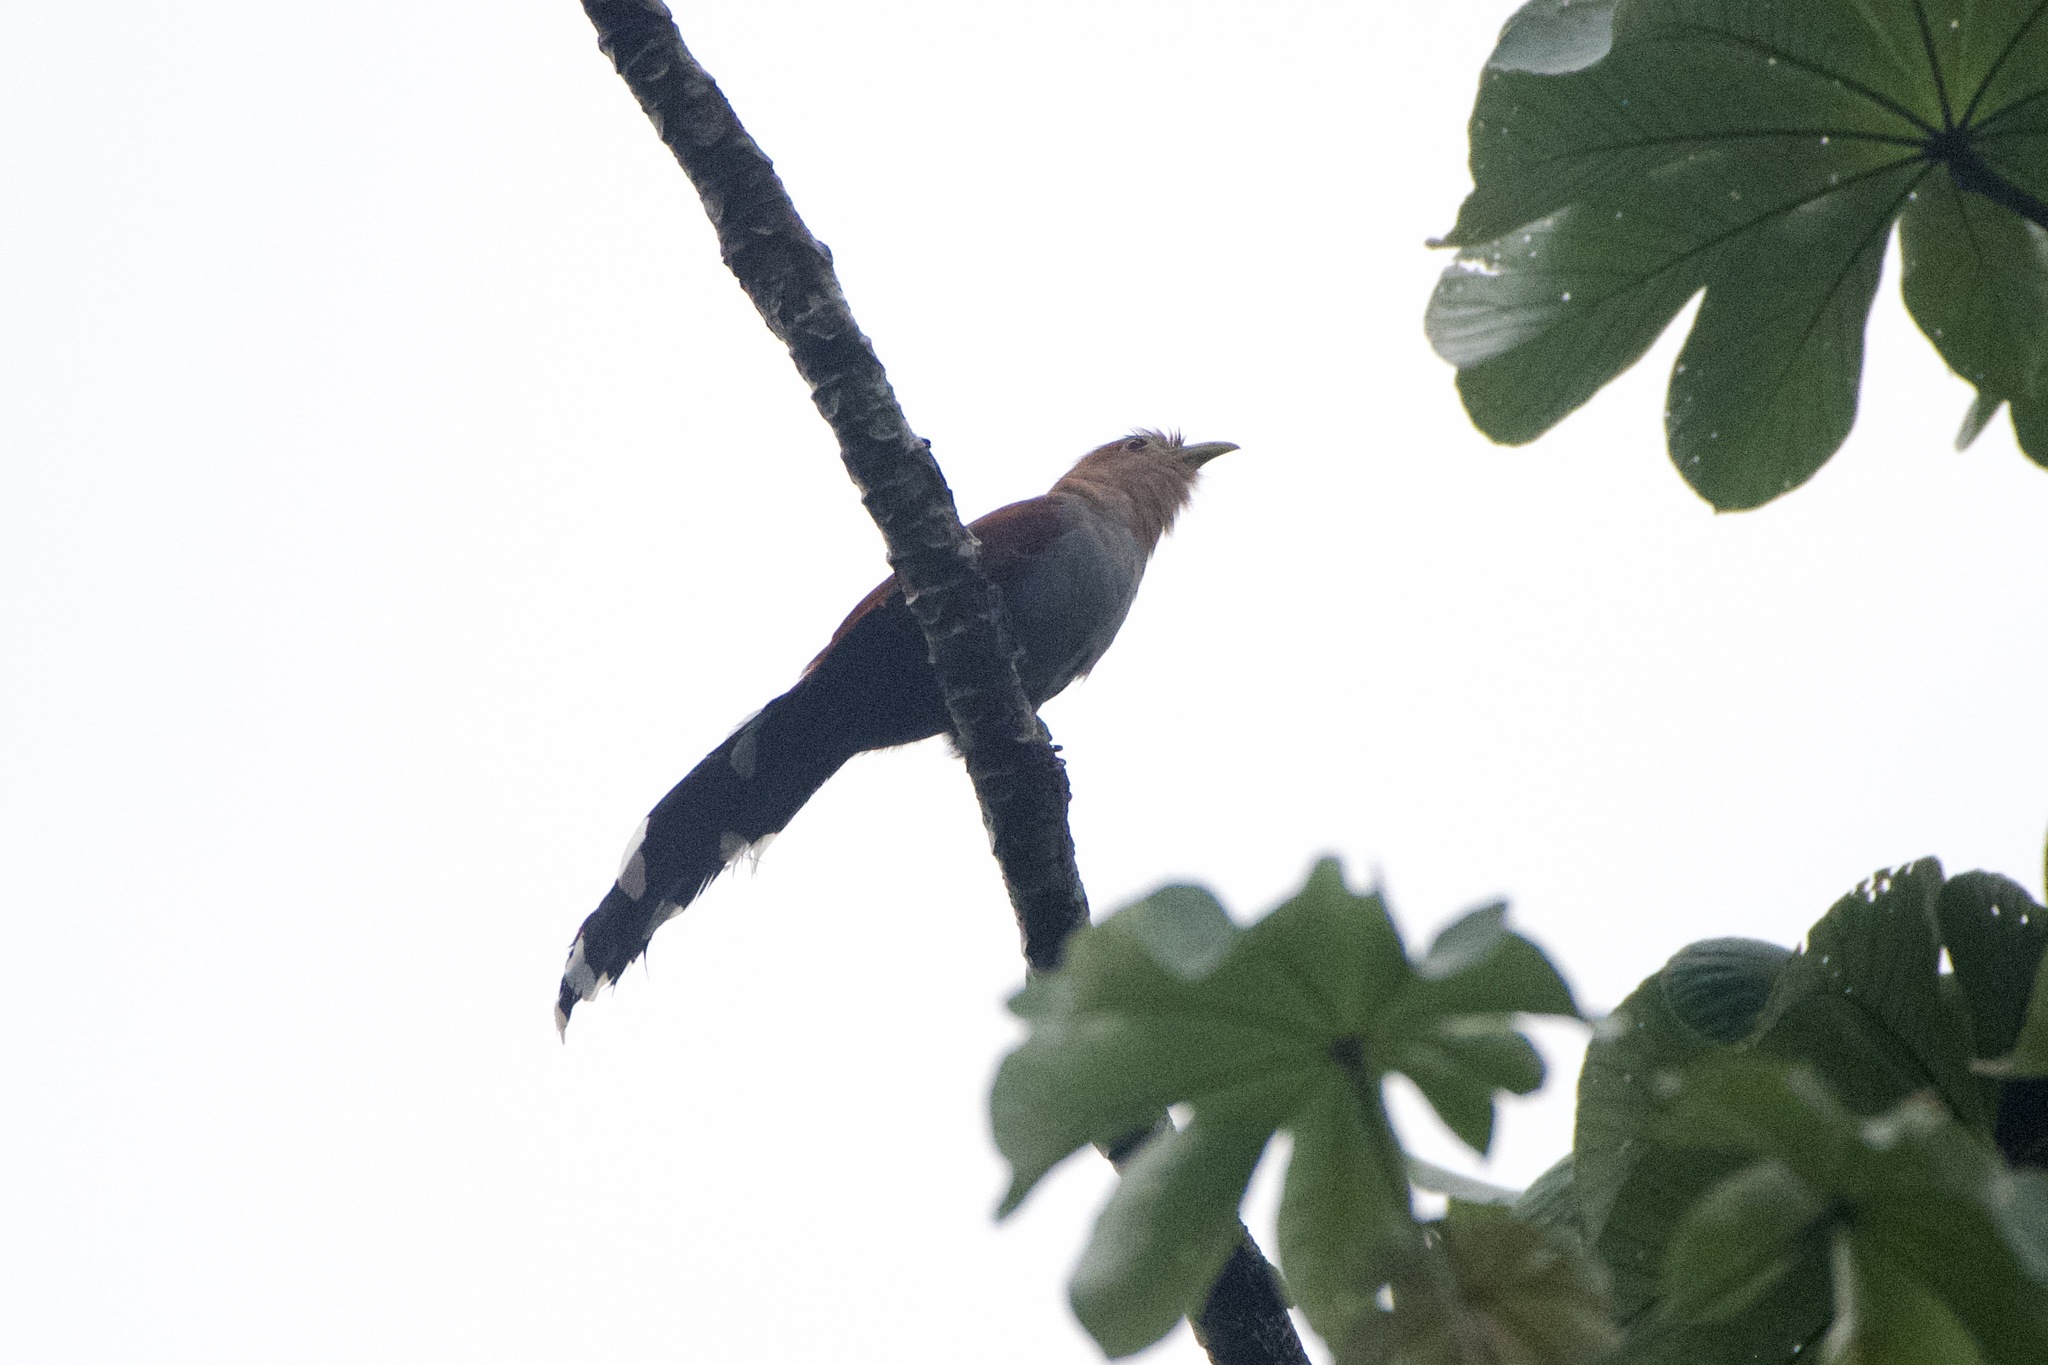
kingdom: Animalia
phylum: Chordata
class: Aves
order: Cuculiformes
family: Cuculidae
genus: Piaya
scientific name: Piaya cayana
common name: Squirrel cuckoo
